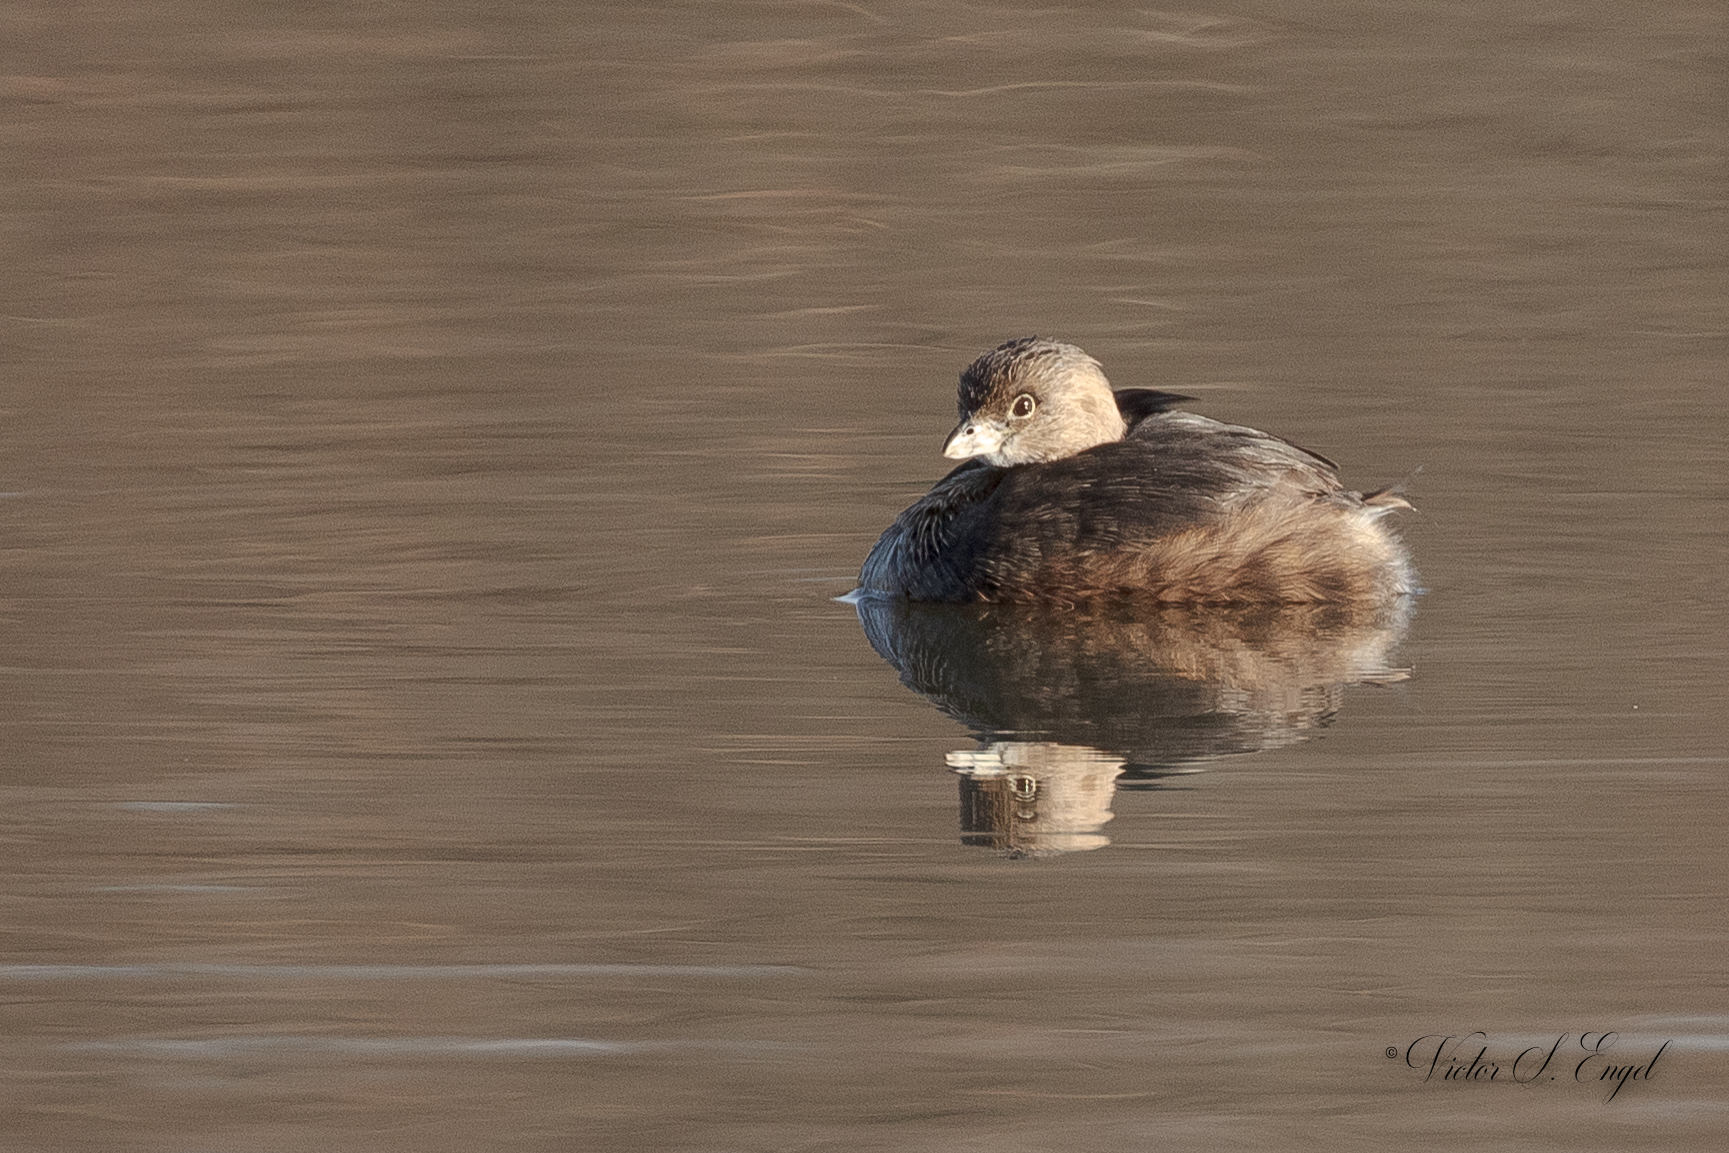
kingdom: Animalia
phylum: Chordata
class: Aves
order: Podicipediformes
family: Podicipedidae
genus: Podilymbus
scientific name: Podilymbus podiceps
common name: Pied-billed grebe
